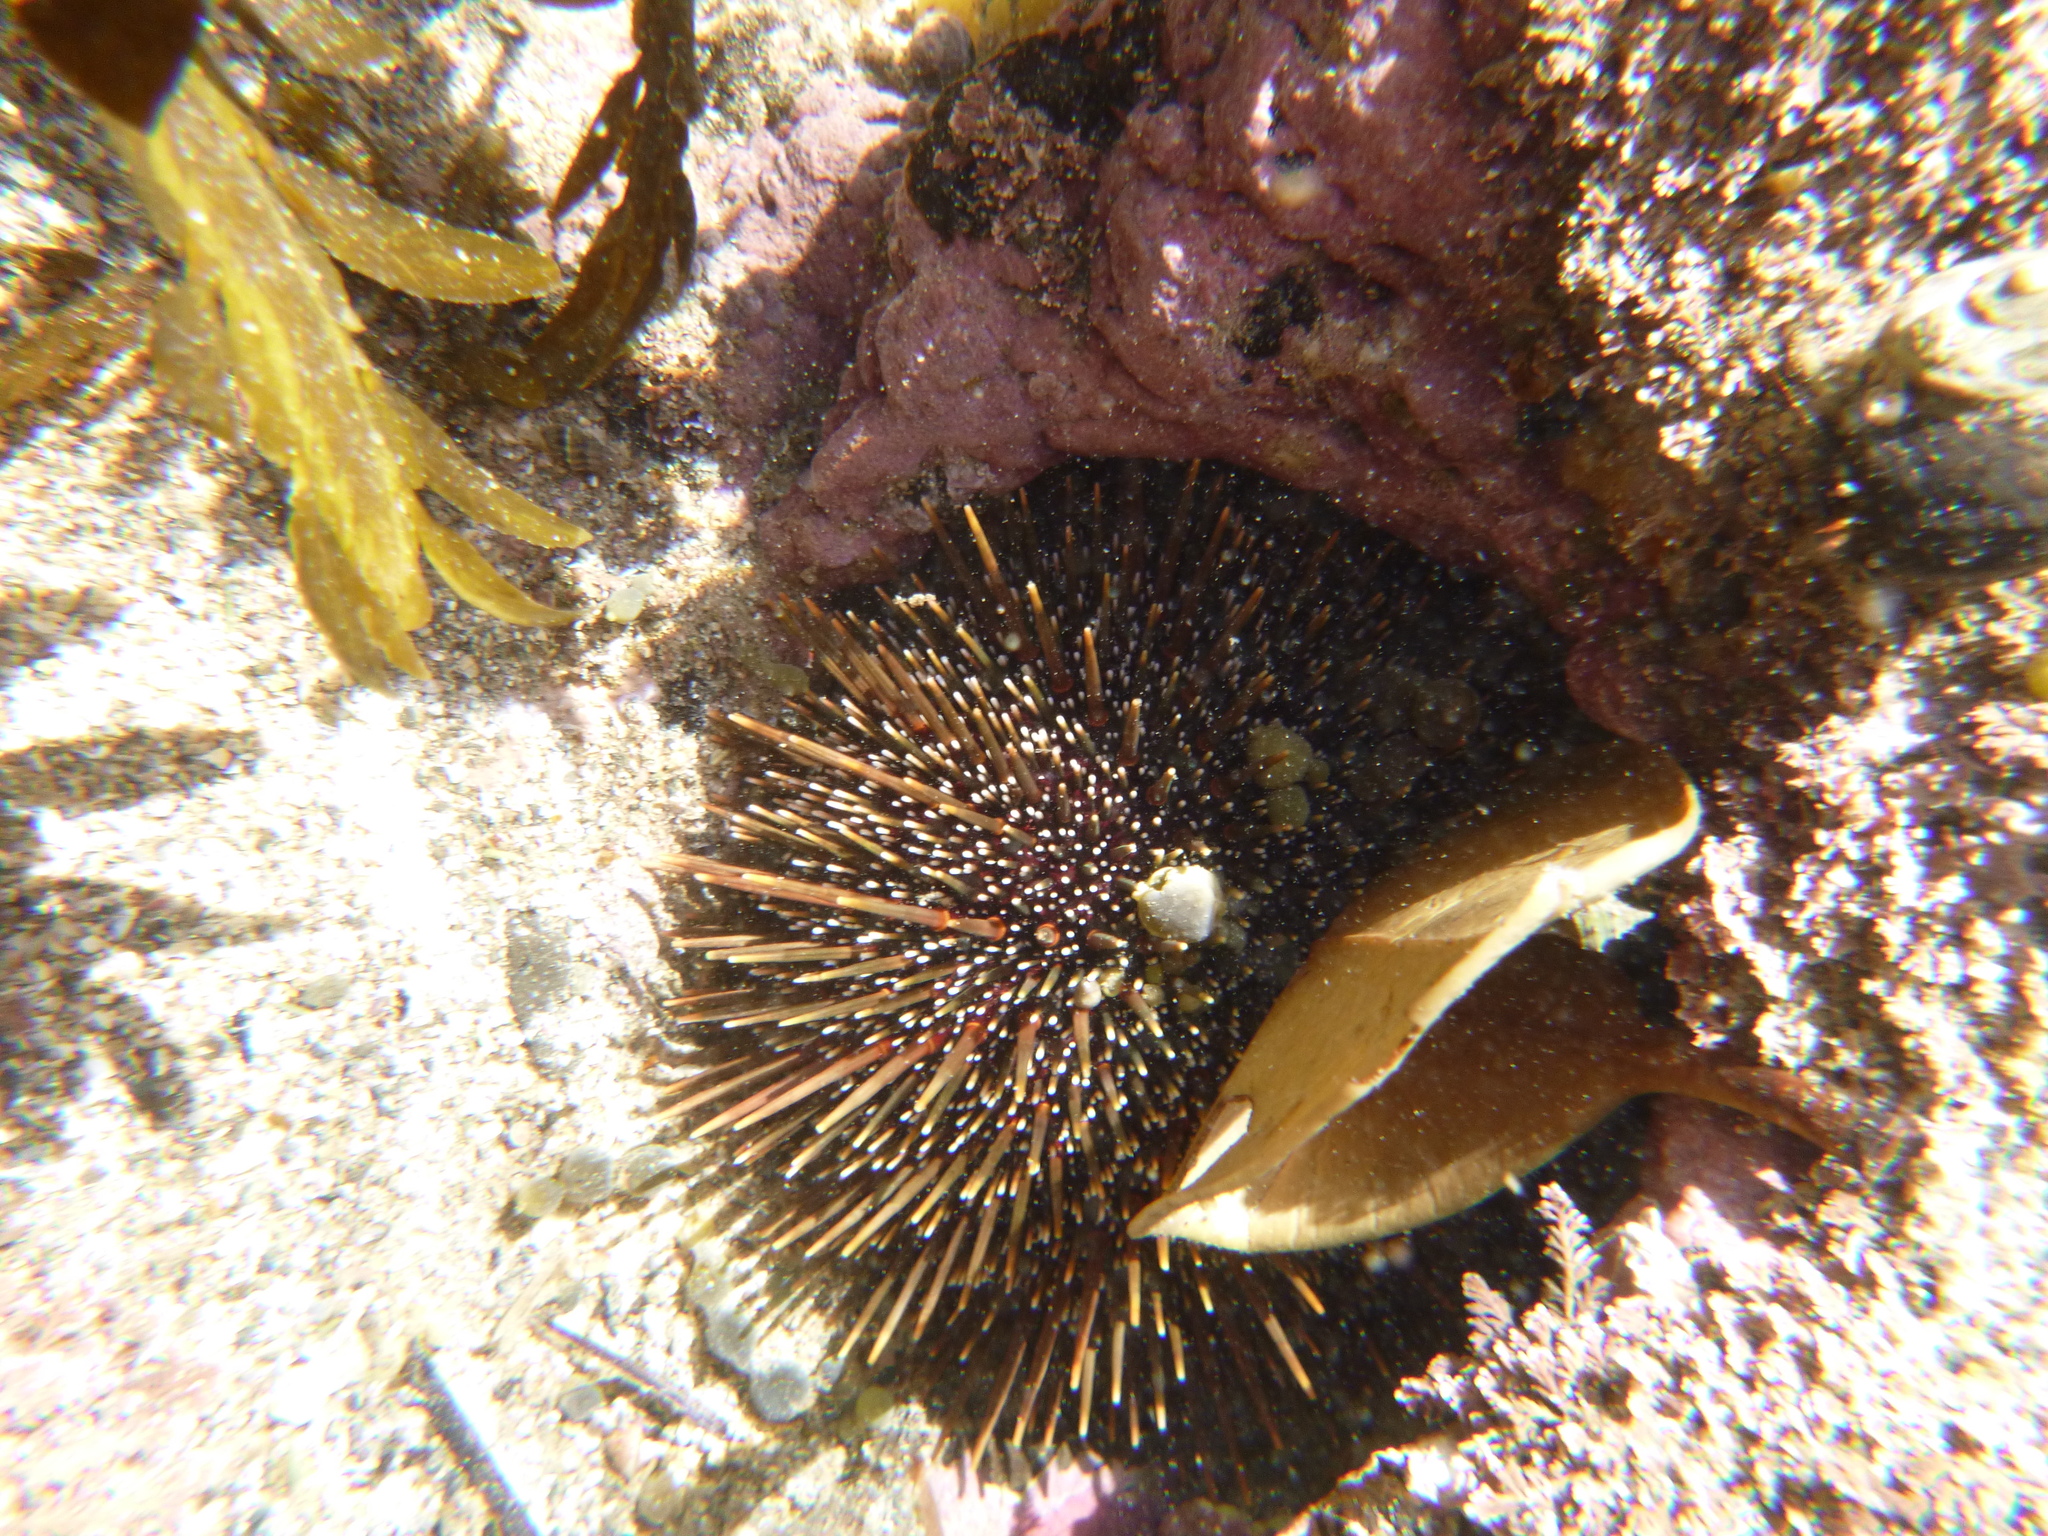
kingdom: Animalia
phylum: Echinodermata
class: Echinoidea
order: Camarodonta
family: Echinometridae
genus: Evechinus
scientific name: Evechinus chloroticus
